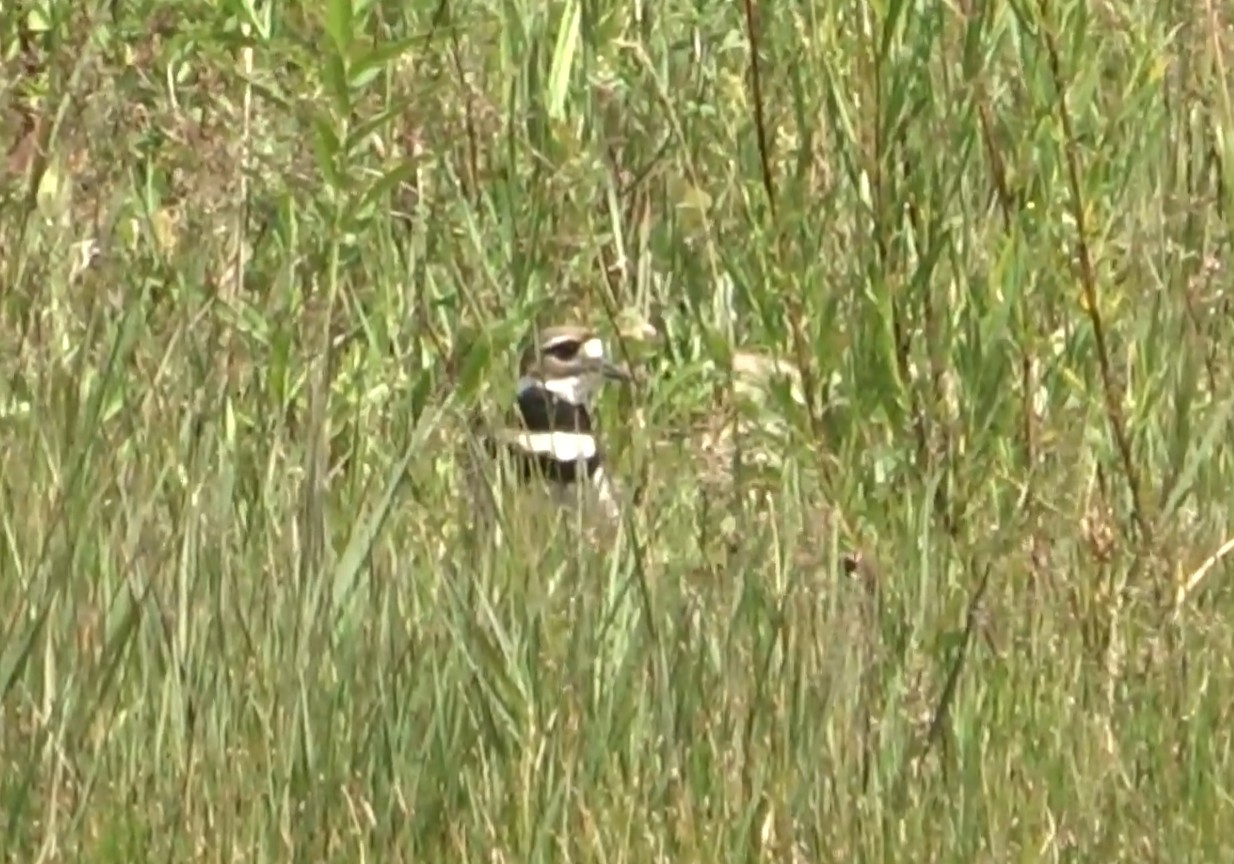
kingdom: Animalia
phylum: Chordata
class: Aves
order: Charadriiformes
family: Charadriidae
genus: Charadrius
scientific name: Charadrius vociferus
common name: Killdeer
